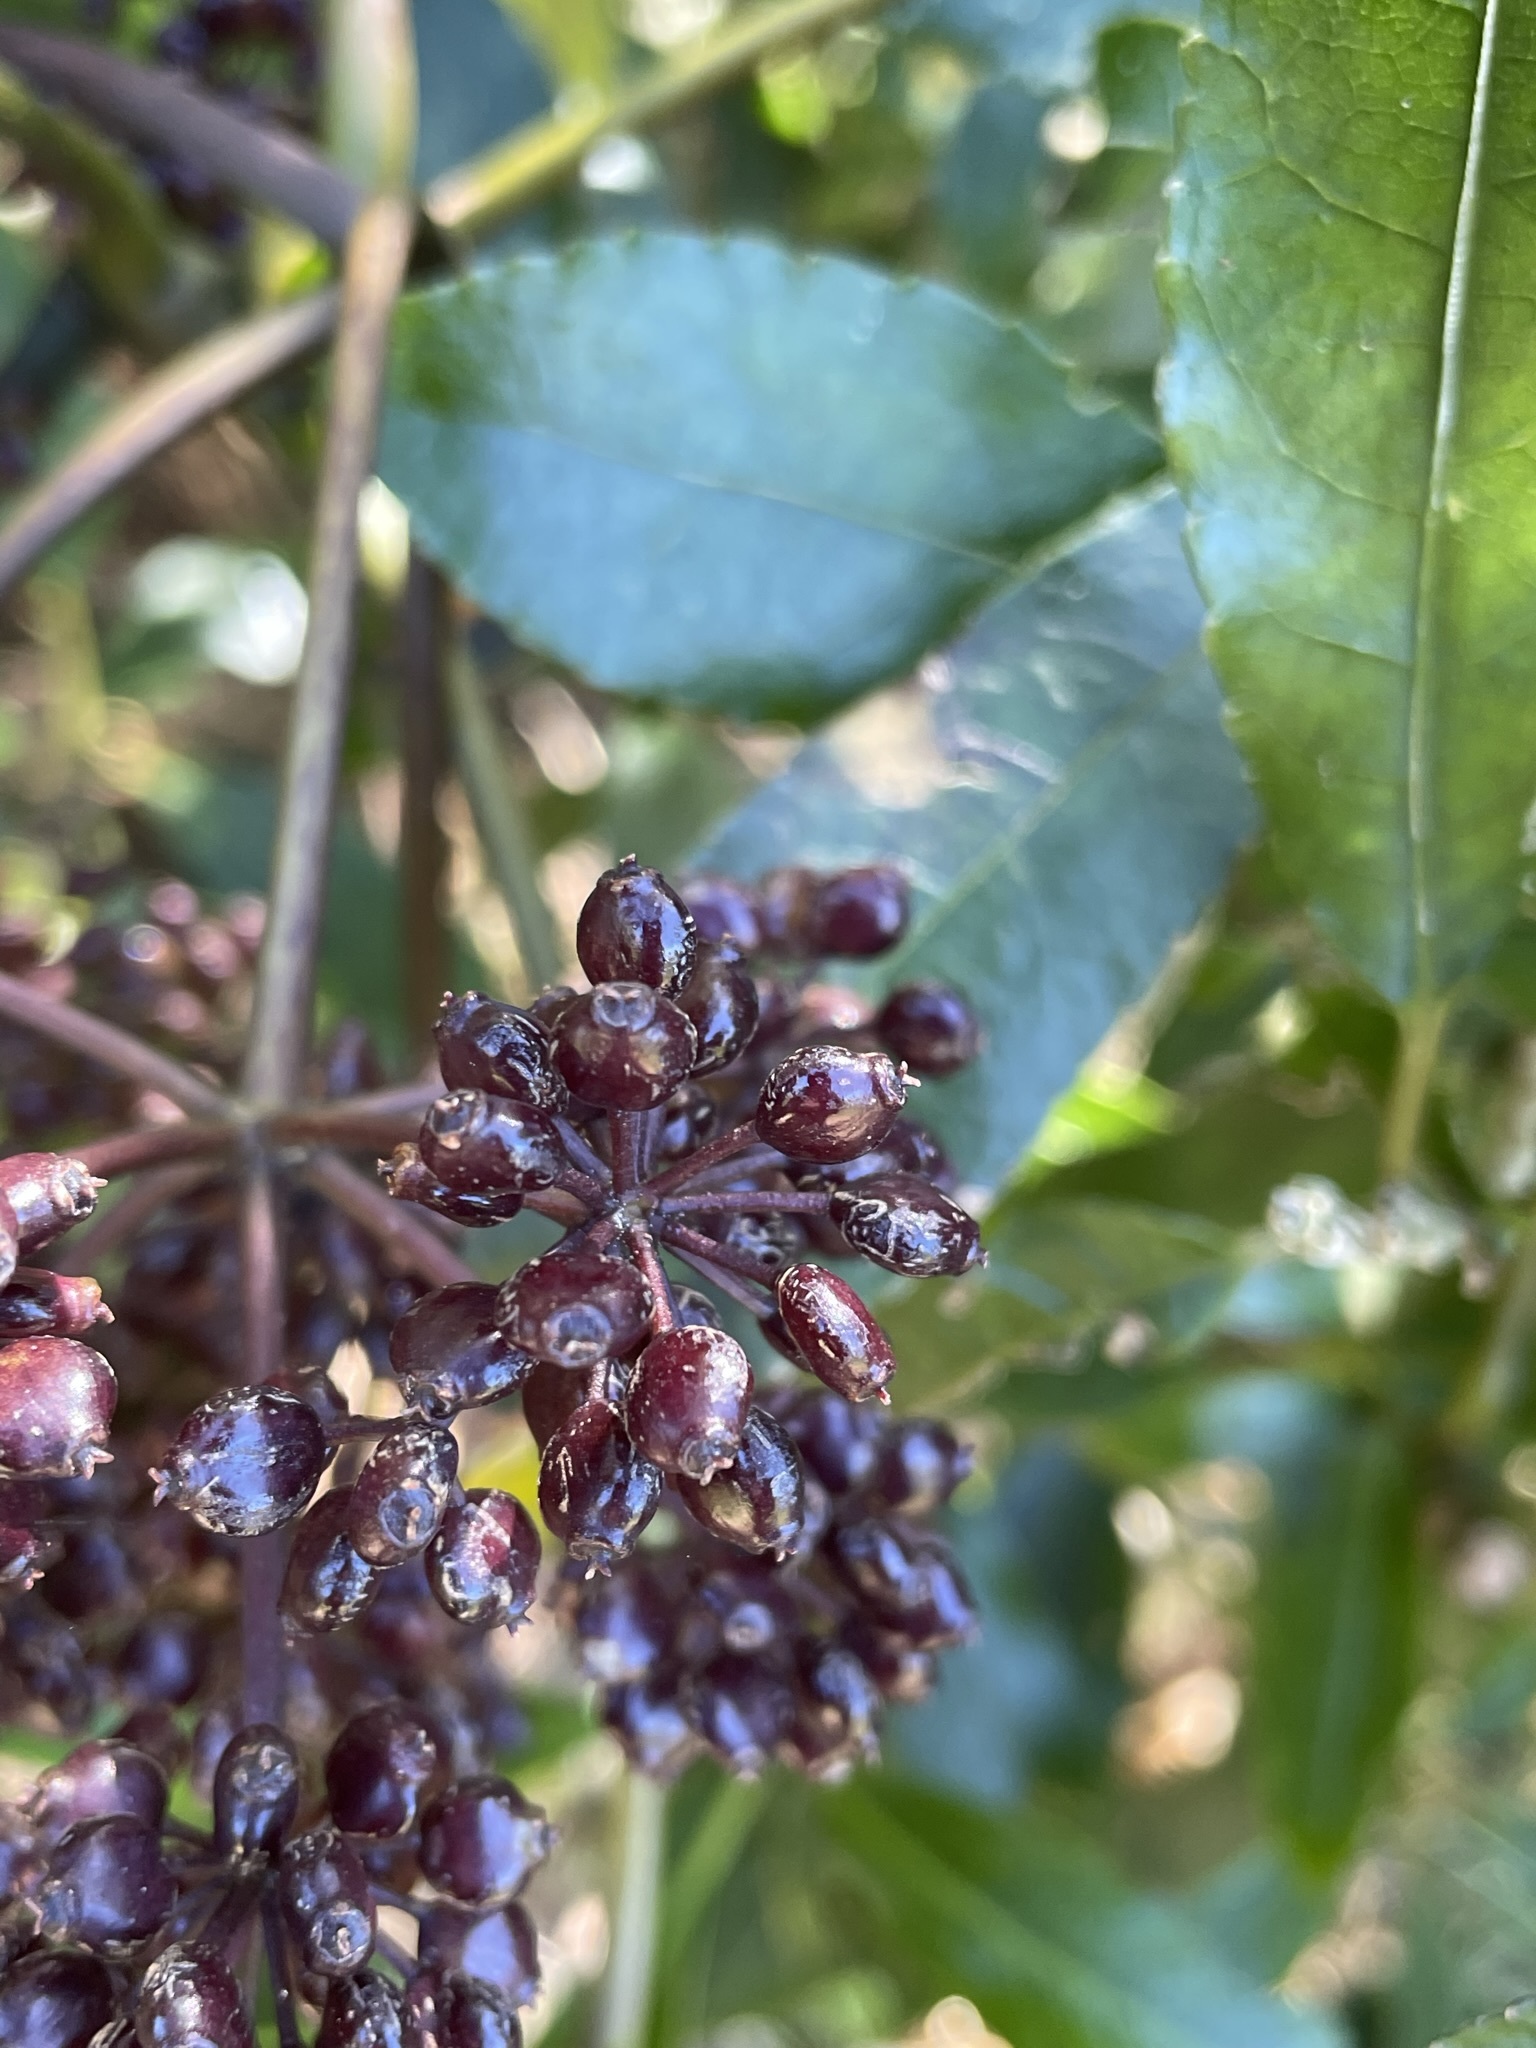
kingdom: Plantae
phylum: Tracheophyta
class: Magnoliopsida
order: Apiales
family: Araliaceae
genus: Neopanax
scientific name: Neopanax arboreus
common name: Five-fingers
